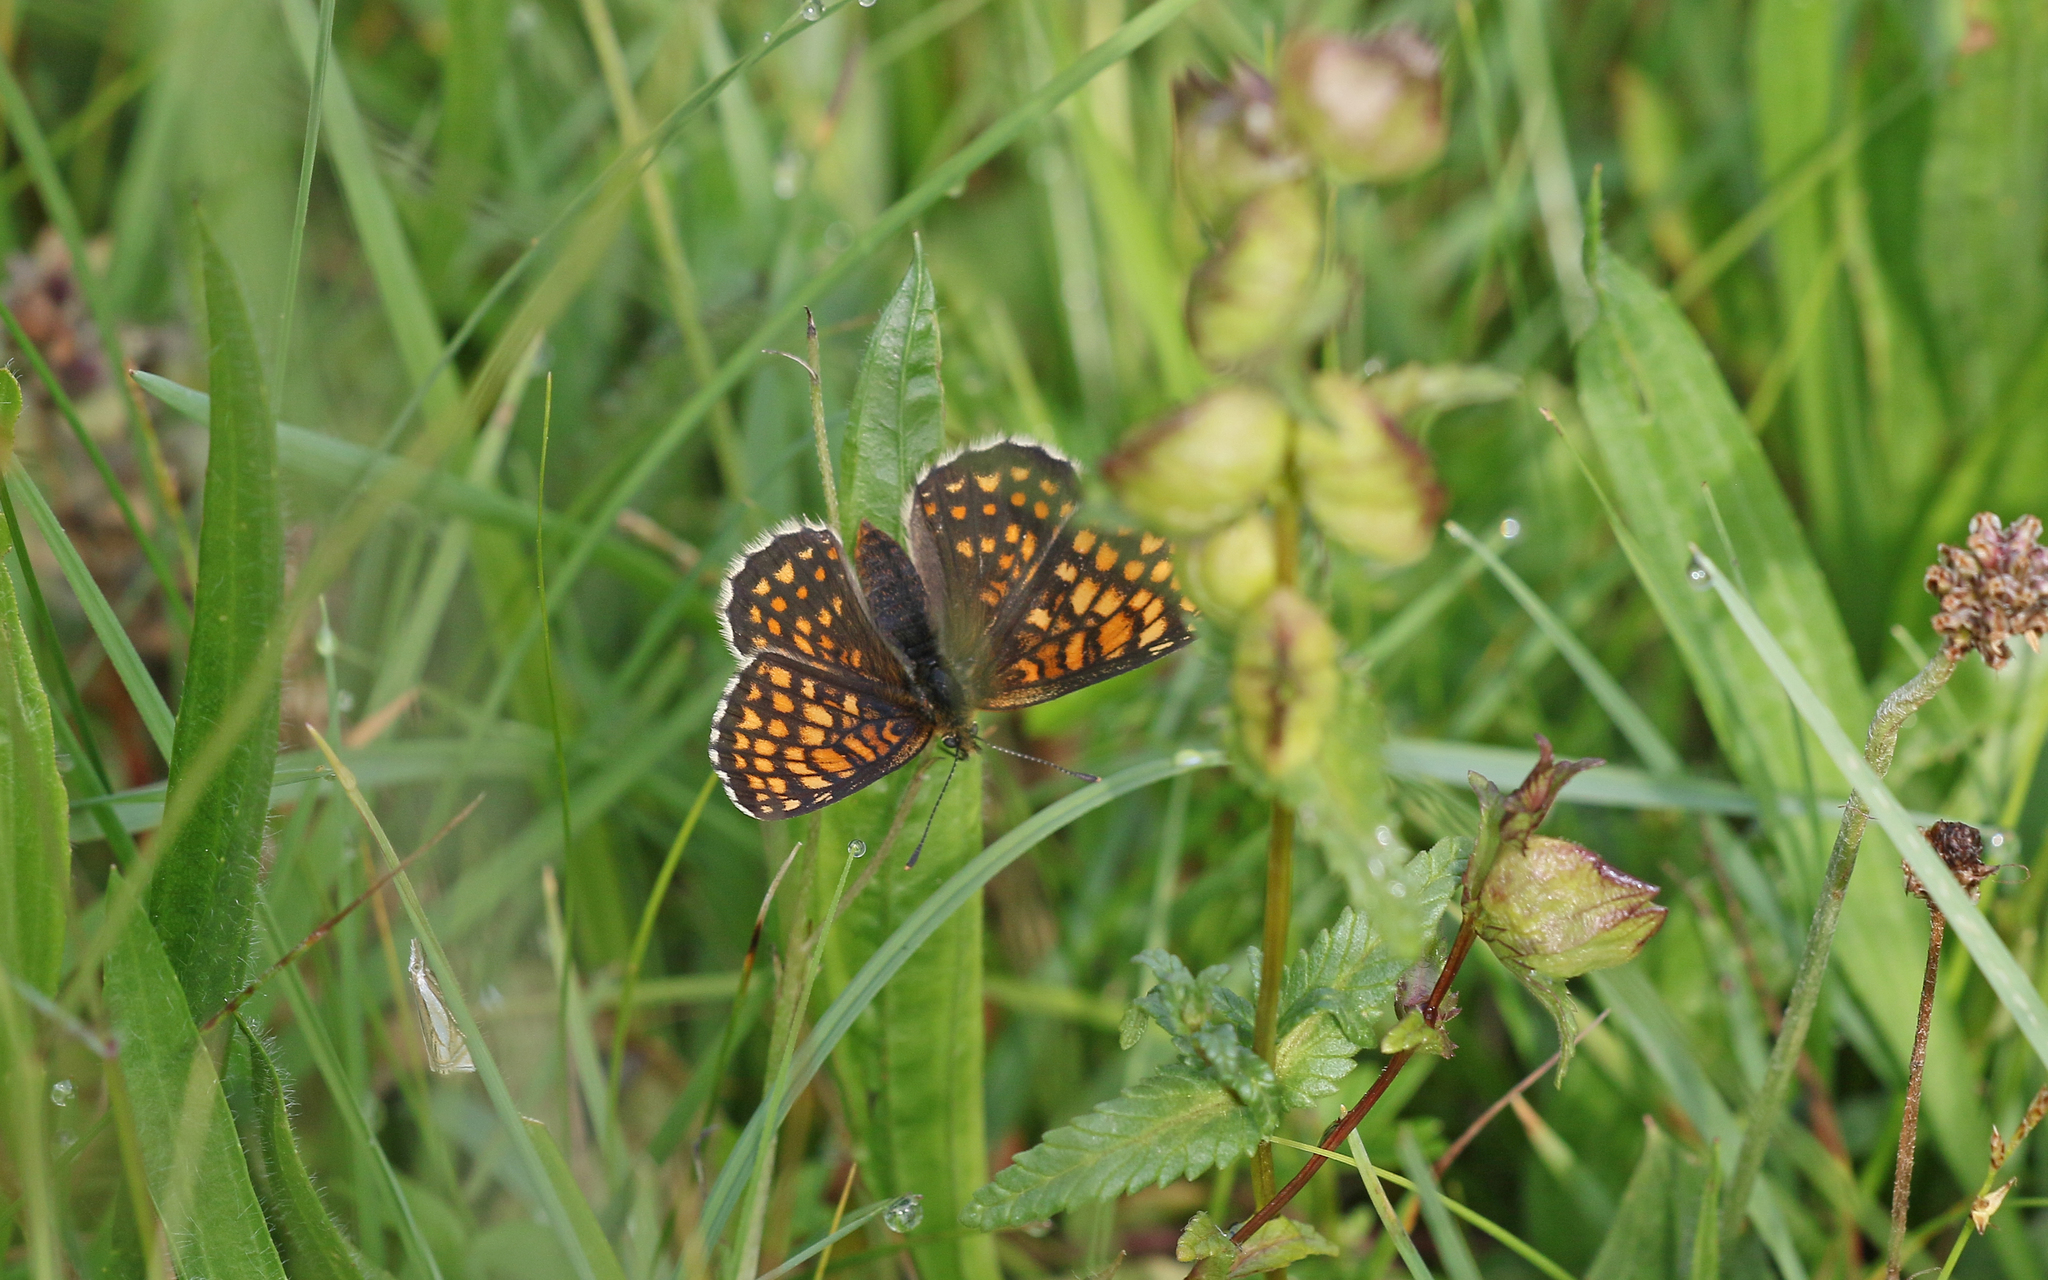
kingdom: Animalia
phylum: Arthropoda
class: Insecta
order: Lepidoptera
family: Nymphalidae
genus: Melitaea
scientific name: Melitaea athalia
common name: Heath fritillary
